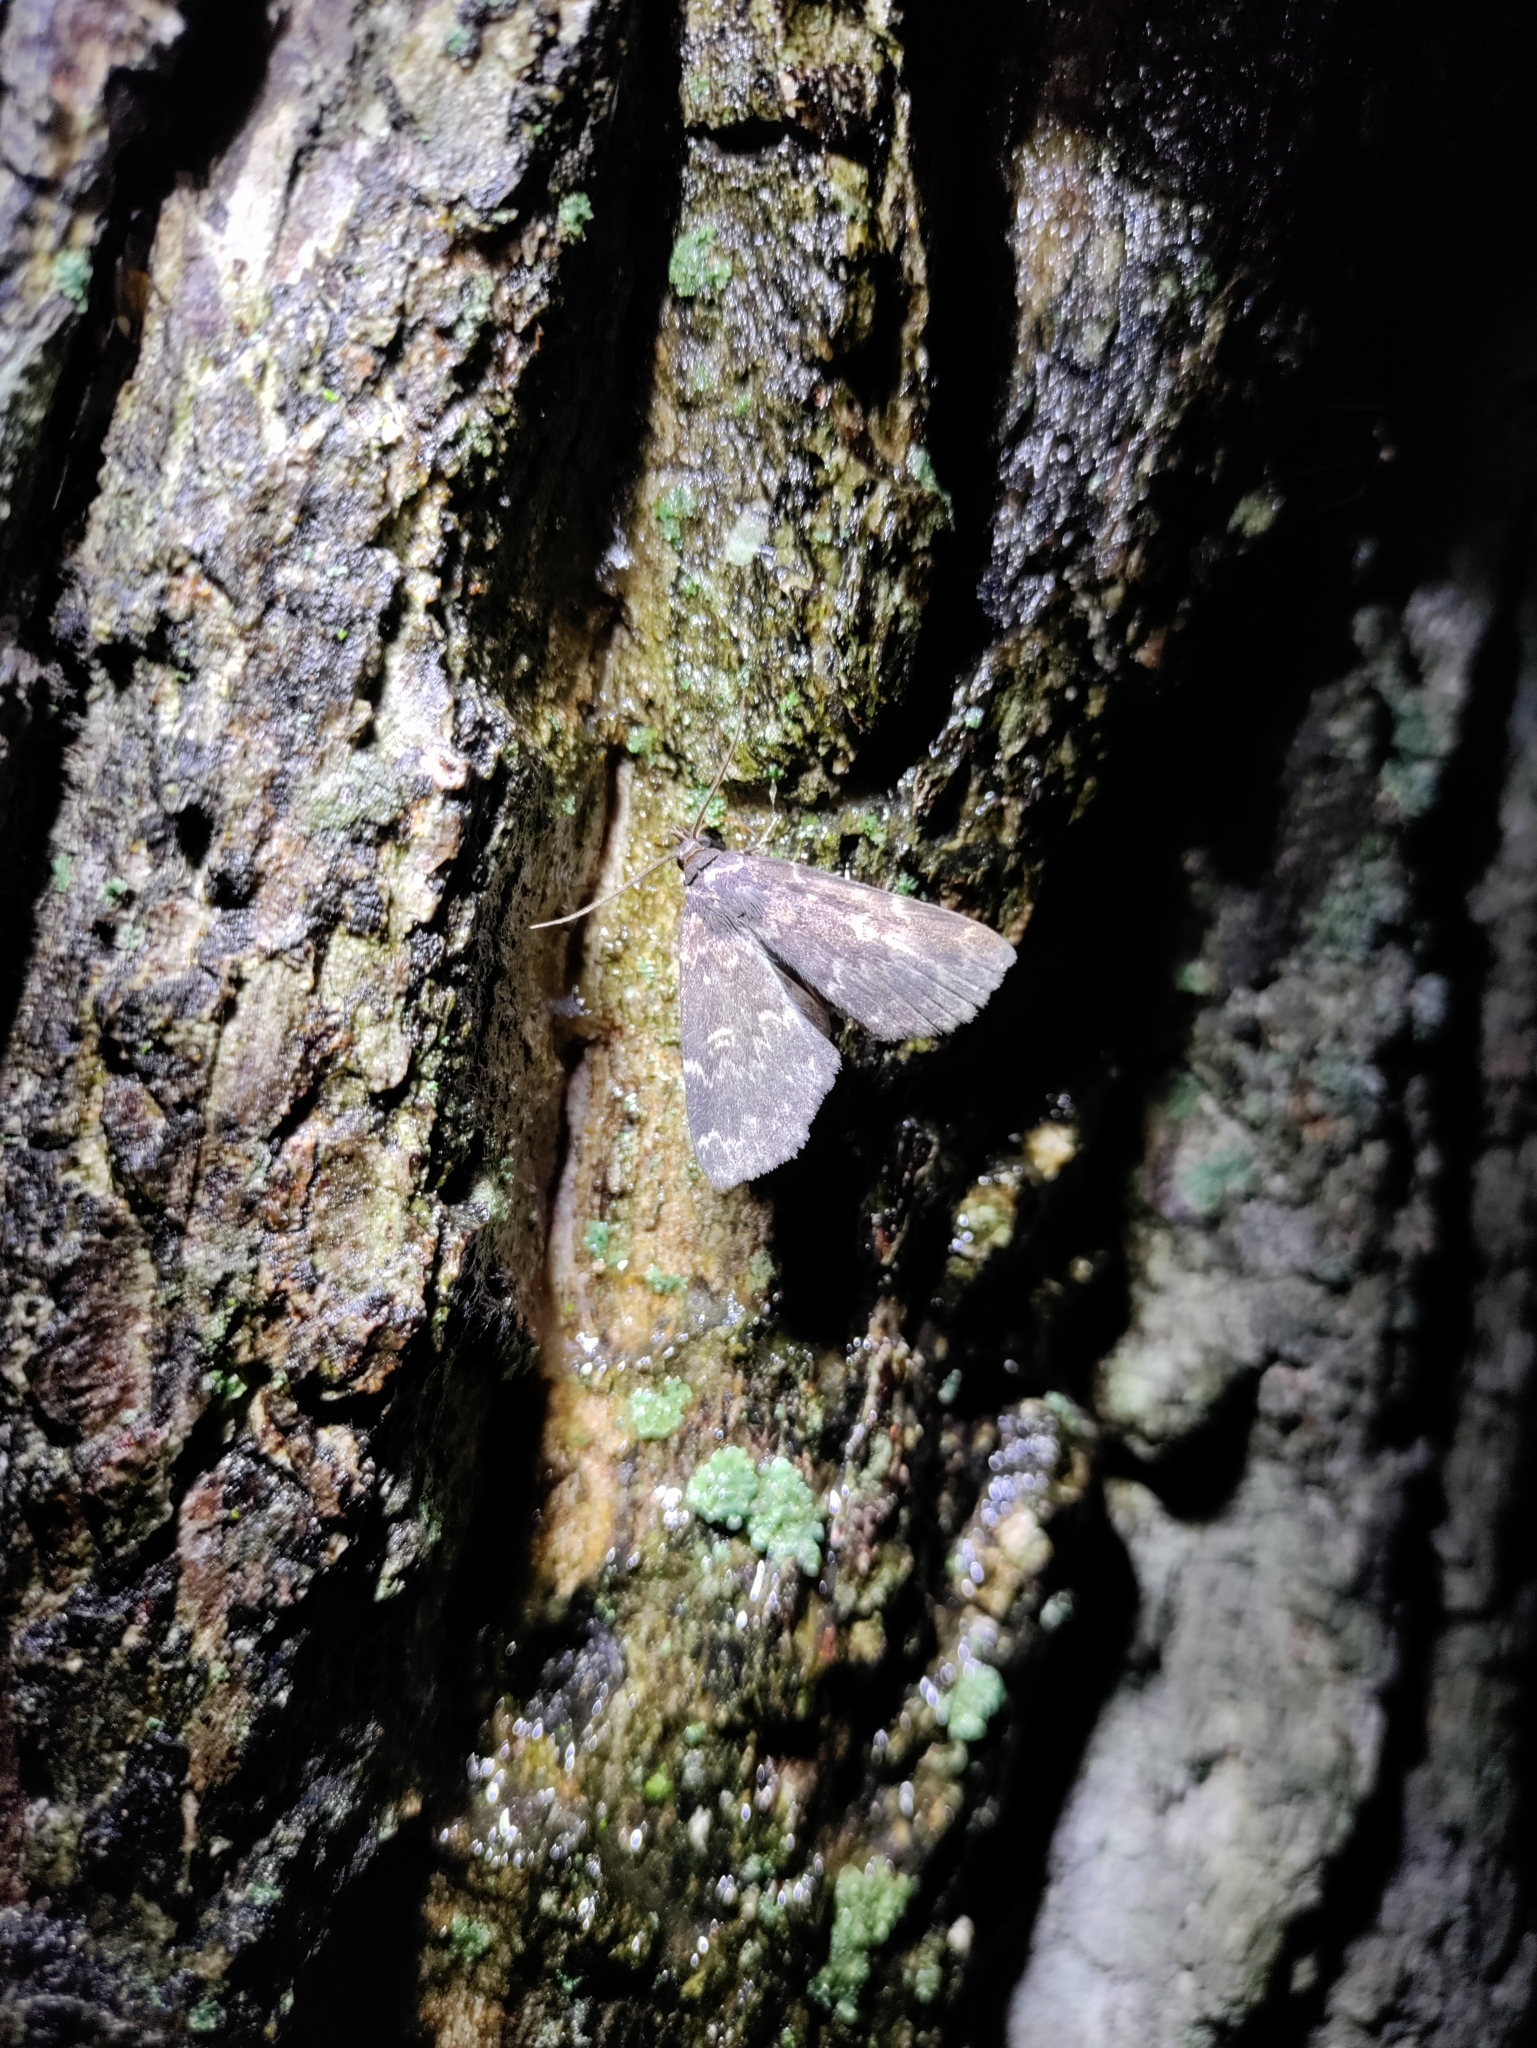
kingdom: Animalia
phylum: Arthropoda
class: Insecta
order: Lepidoptera
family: Erebidae
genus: Idia
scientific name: Idia lubricalis
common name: Twin-striped tabby
